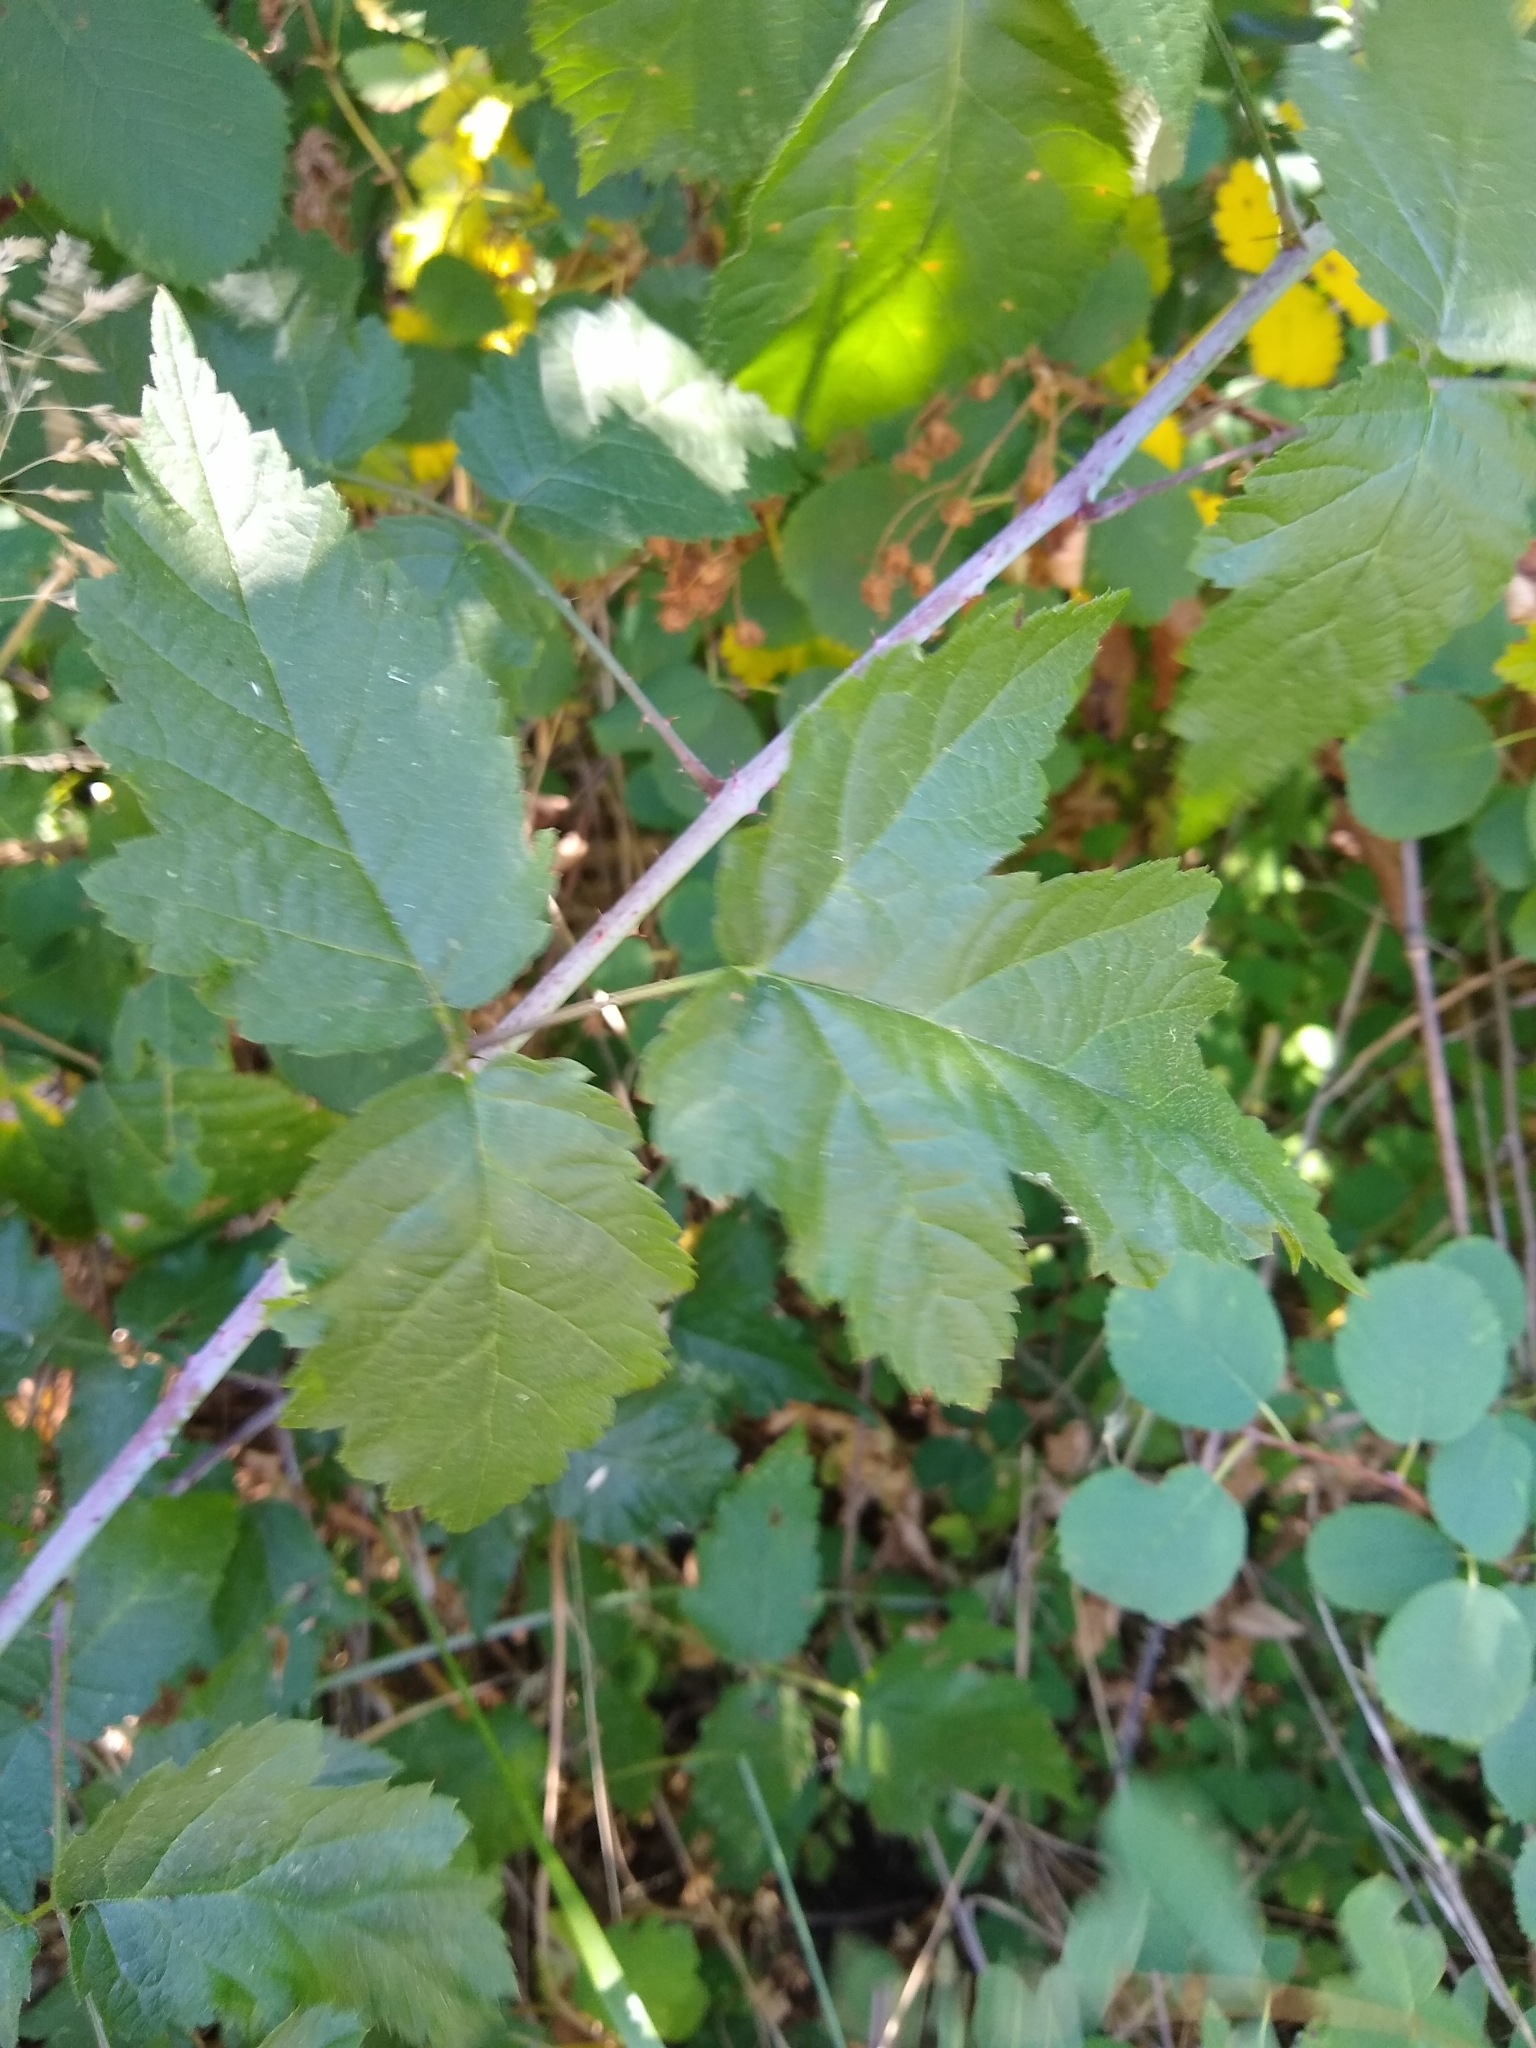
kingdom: Plantae
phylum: Tracheophyta
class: Magnoliopsida
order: Rosales
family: Rosaceae
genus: Rubus
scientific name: Rubus ursinus
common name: Pacific blackberry
